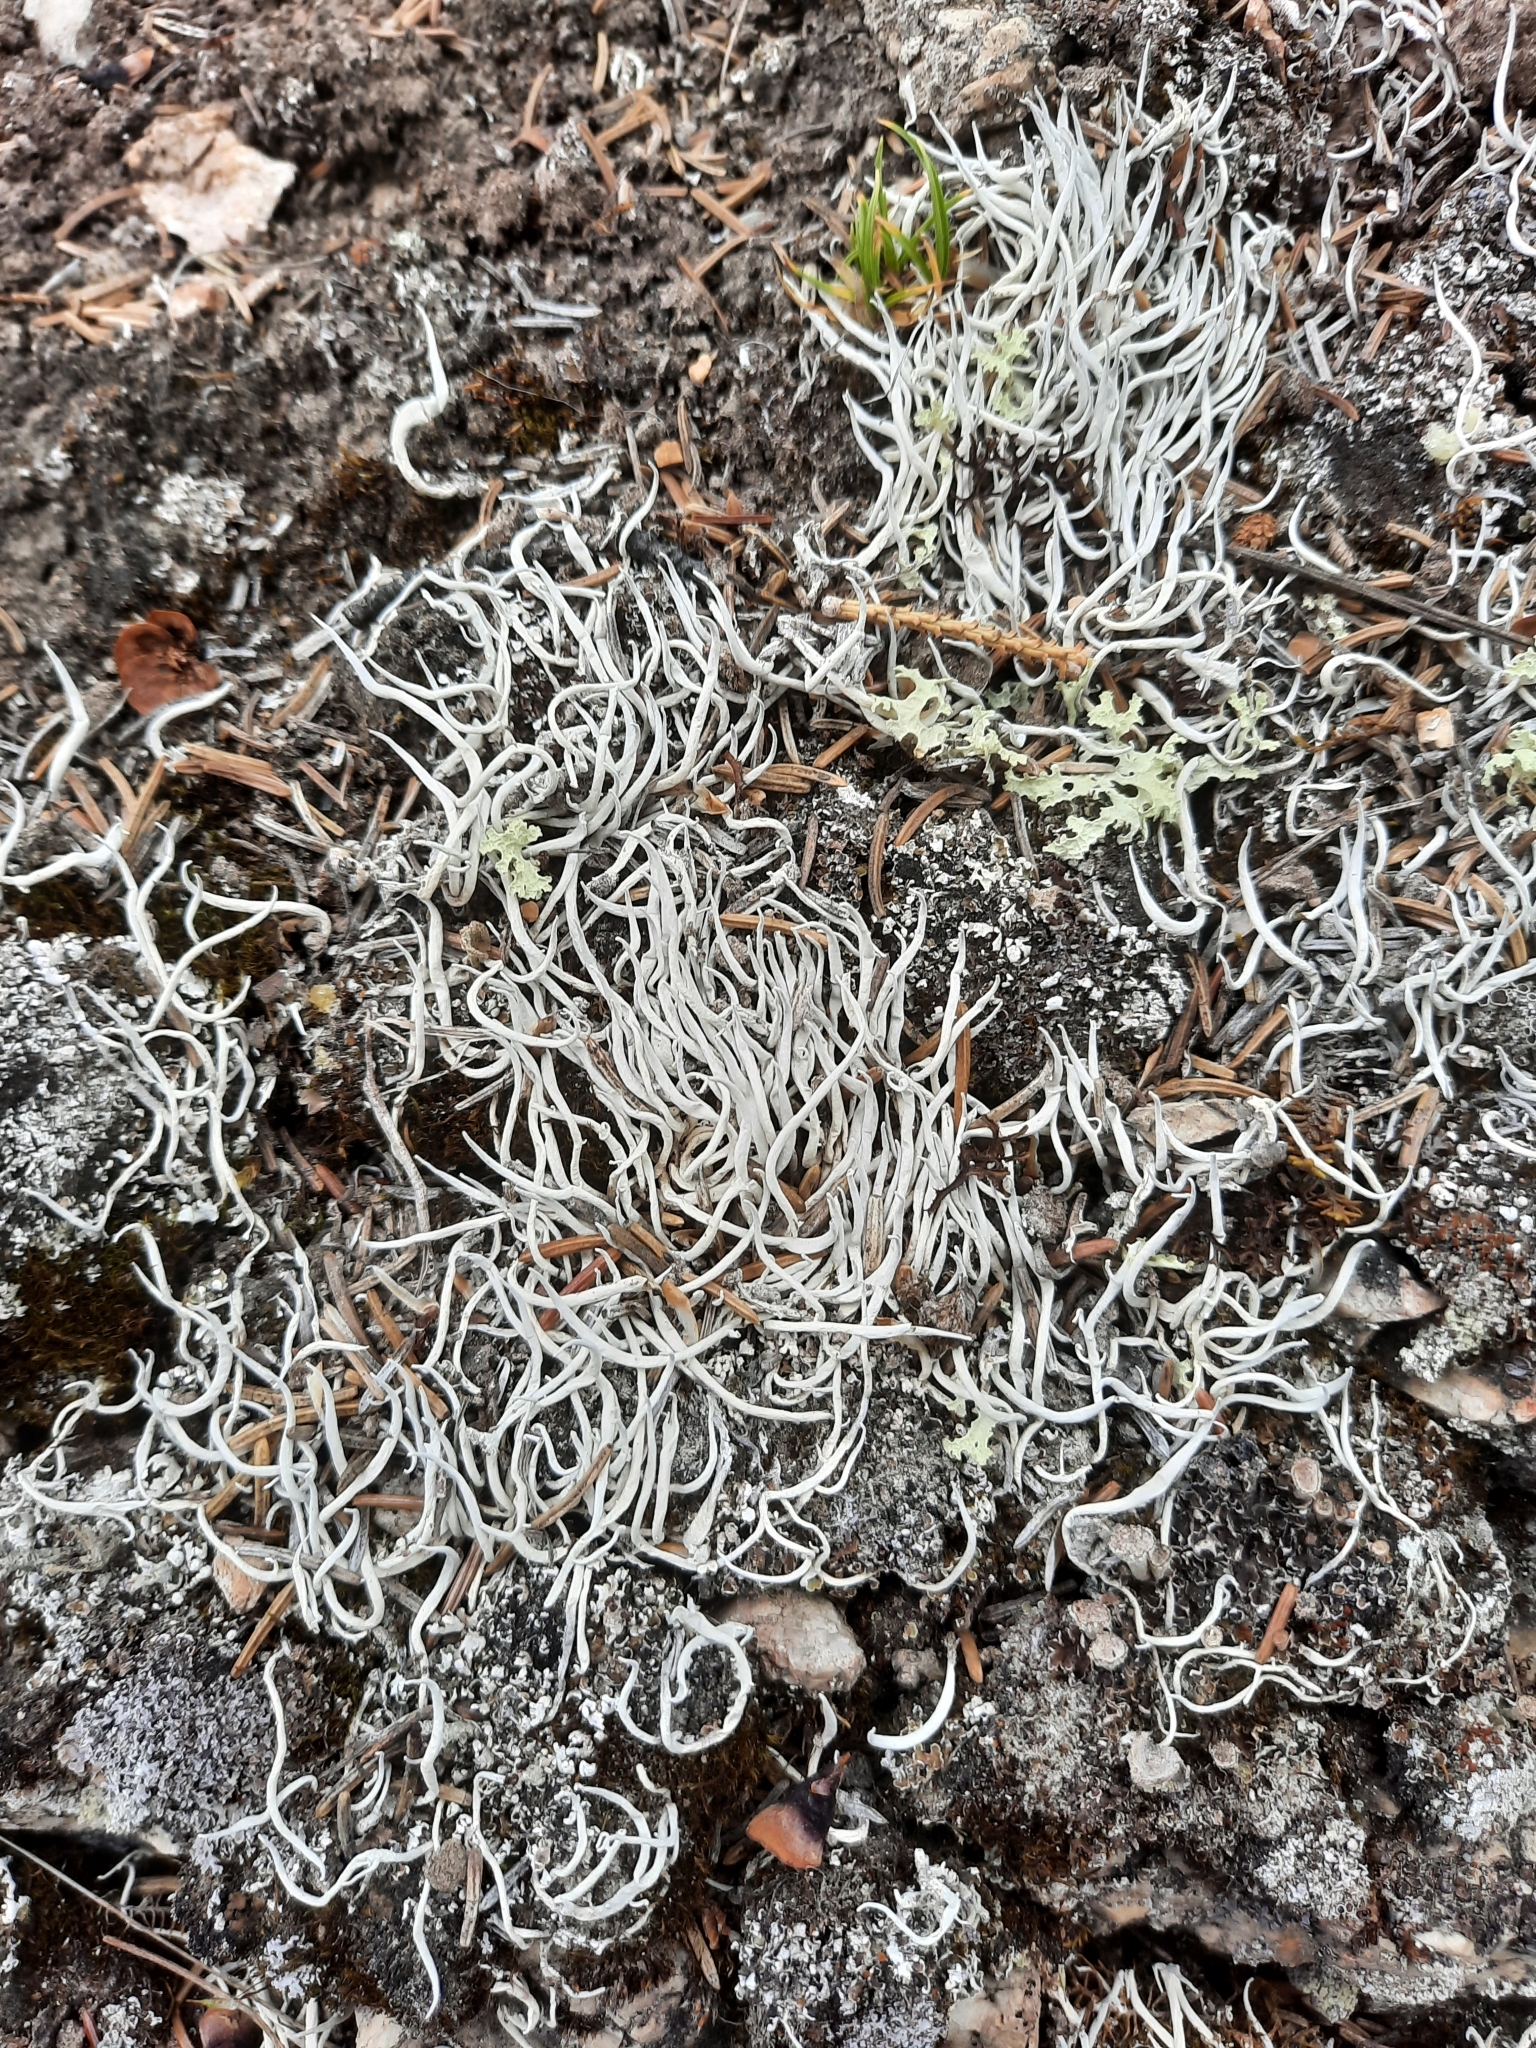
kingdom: Fungi
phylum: Ascomycota
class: Lecanoromycetes
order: Pertusariales
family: Icmadophilaceae
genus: Thamnolia
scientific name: Thamnolia vermicularis
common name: Whiteworm lichen
